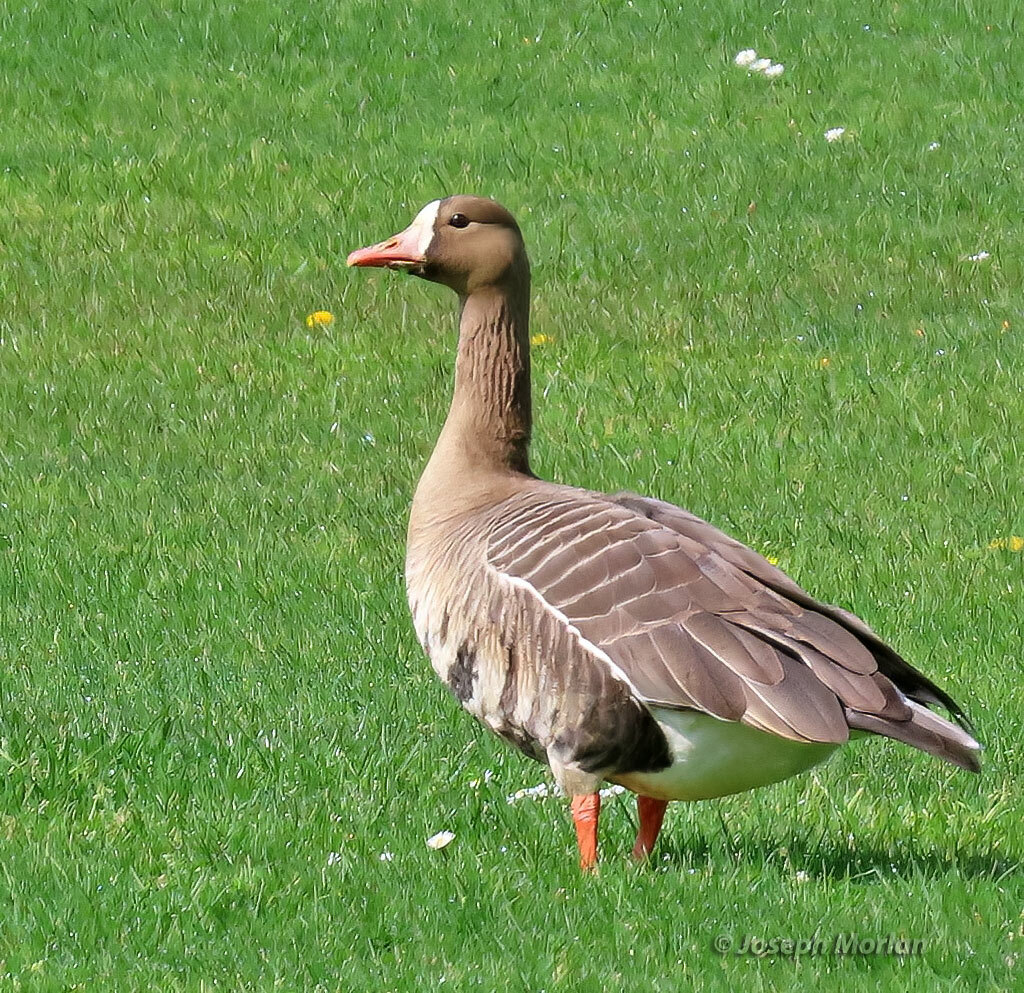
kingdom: Animalia
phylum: Chordata
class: Aves
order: Anseriformes
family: Anatidae
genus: Anser
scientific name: Anser albifrons
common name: Greater white-fronted goose
